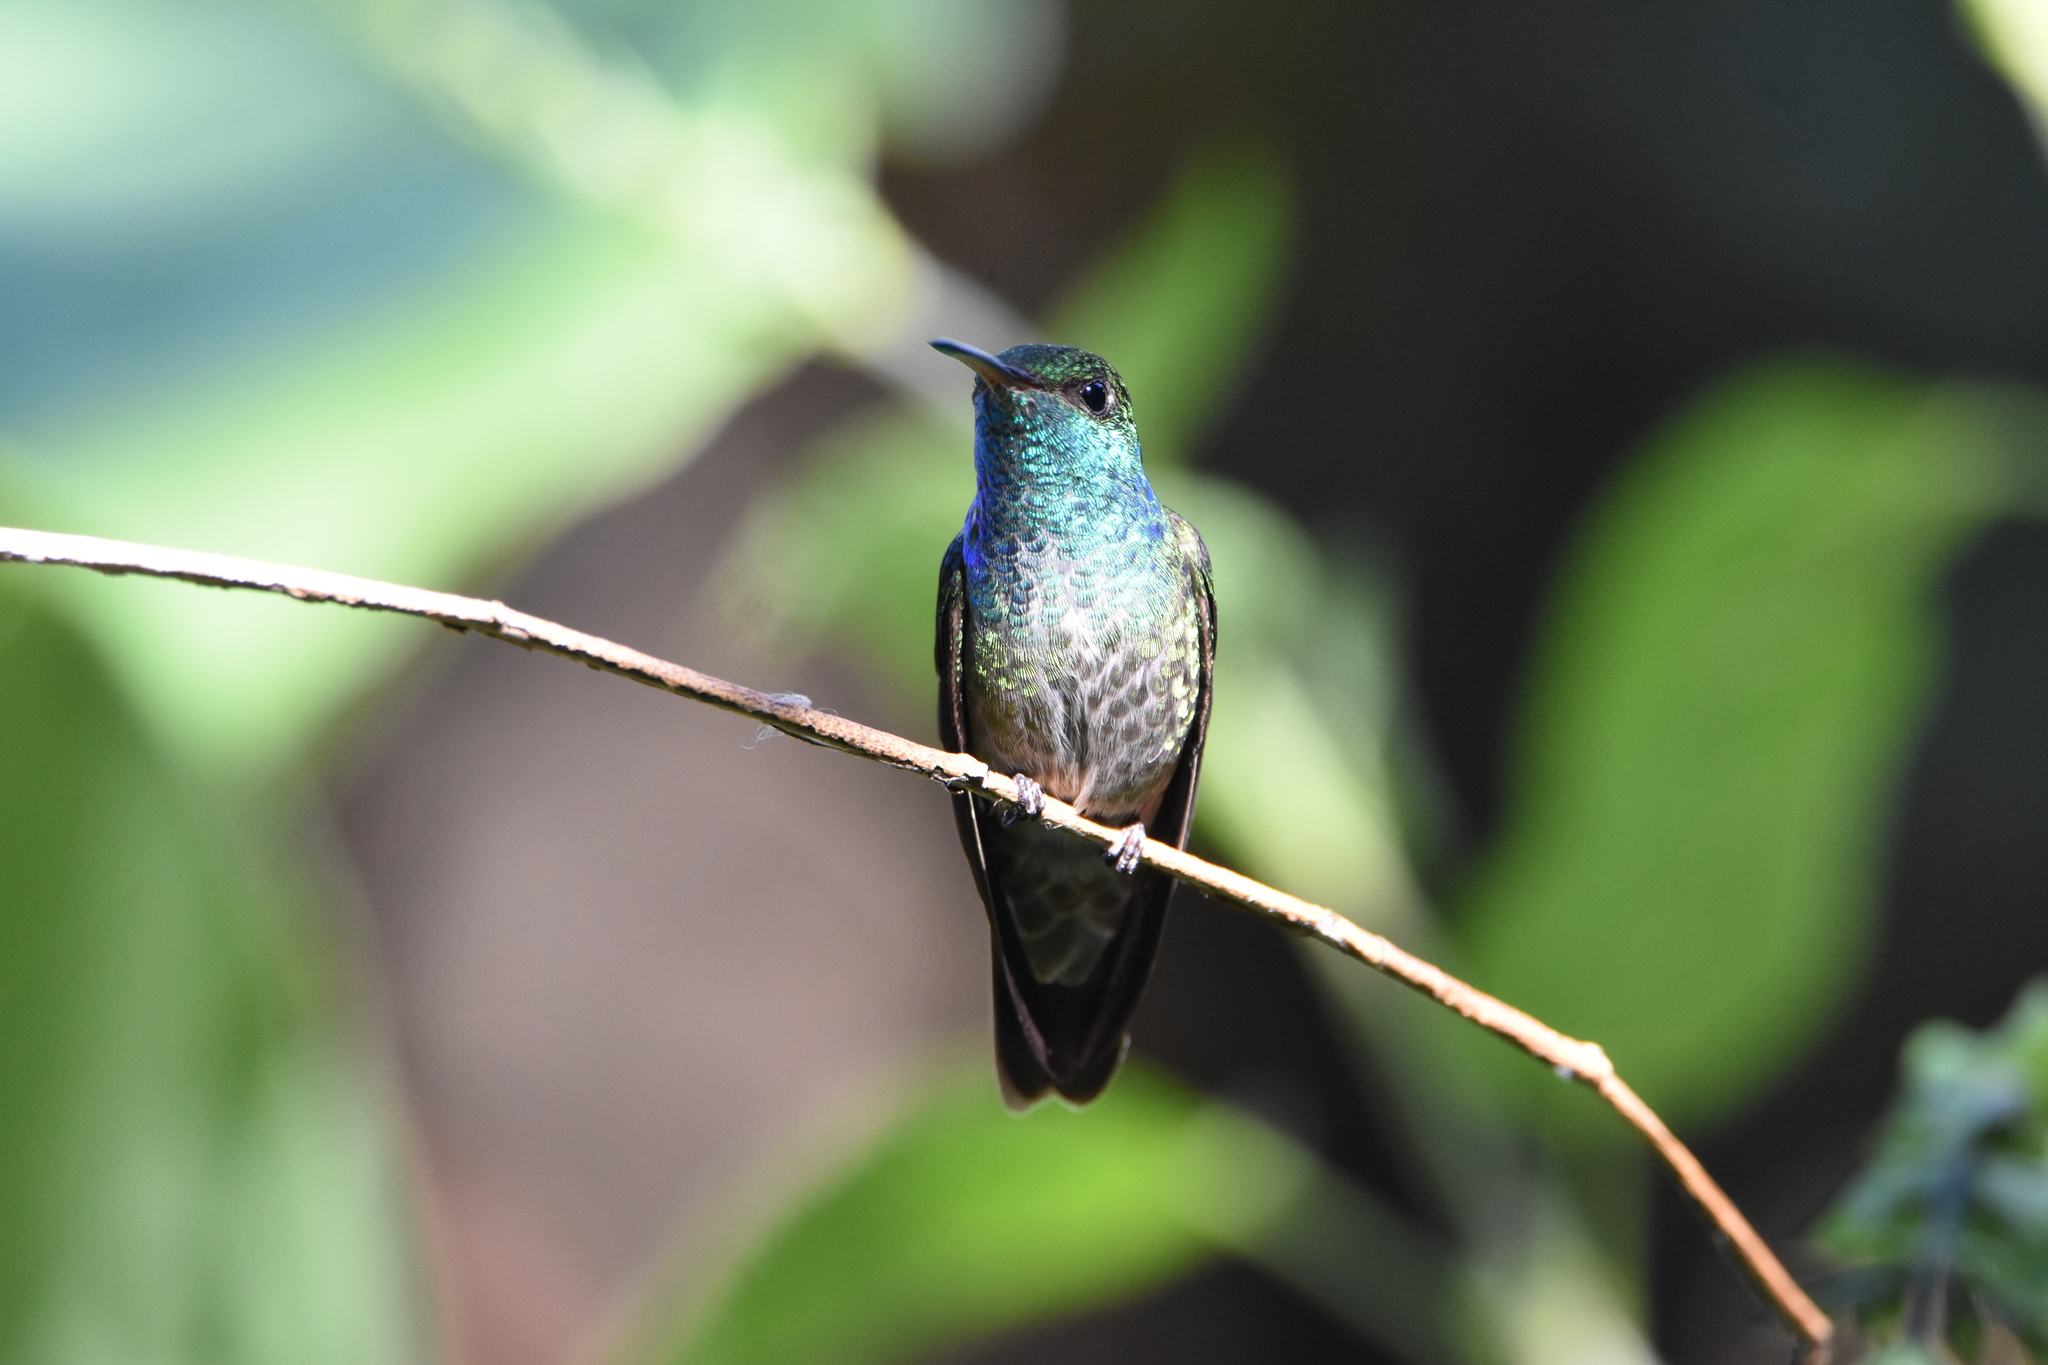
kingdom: Animalia
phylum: Chordata
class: Aves
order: Apodiformes
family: Trochilidae
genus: Chrysuronia
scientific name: Chrysuronia versicolor
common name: Versicolored emerald
